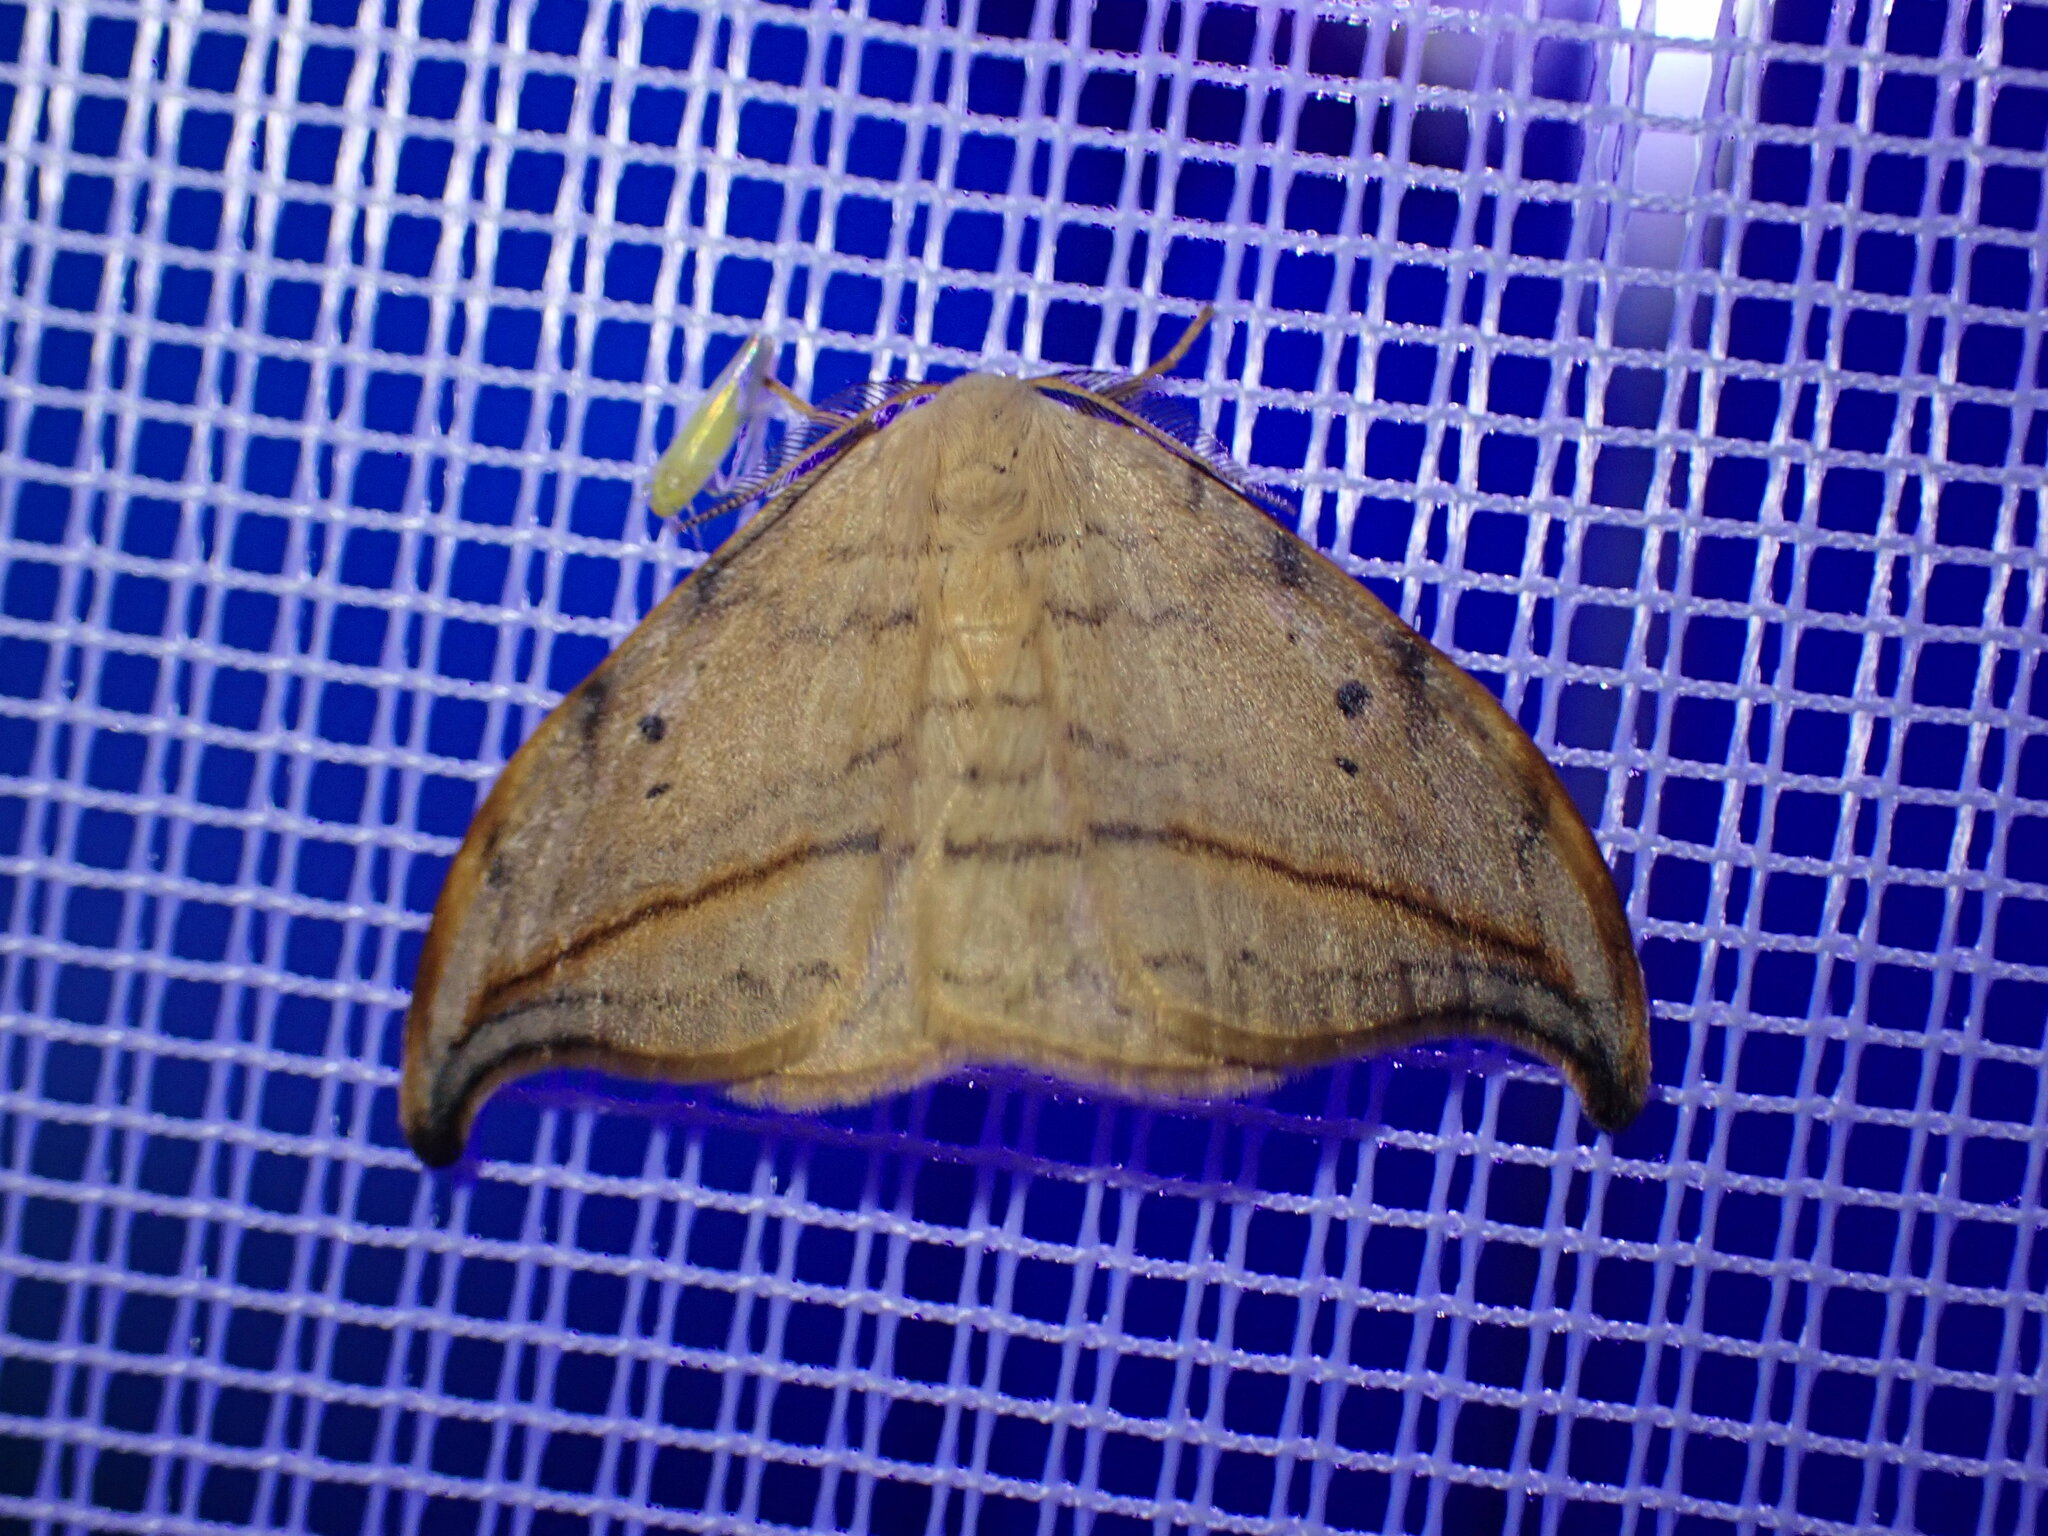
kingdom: Animalia
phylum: Arthropoda
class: Insecta
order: Lepidoptera
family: Drepanidae
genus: Drepana
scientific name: Drepana arcuata
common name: Arched hooktip moth
